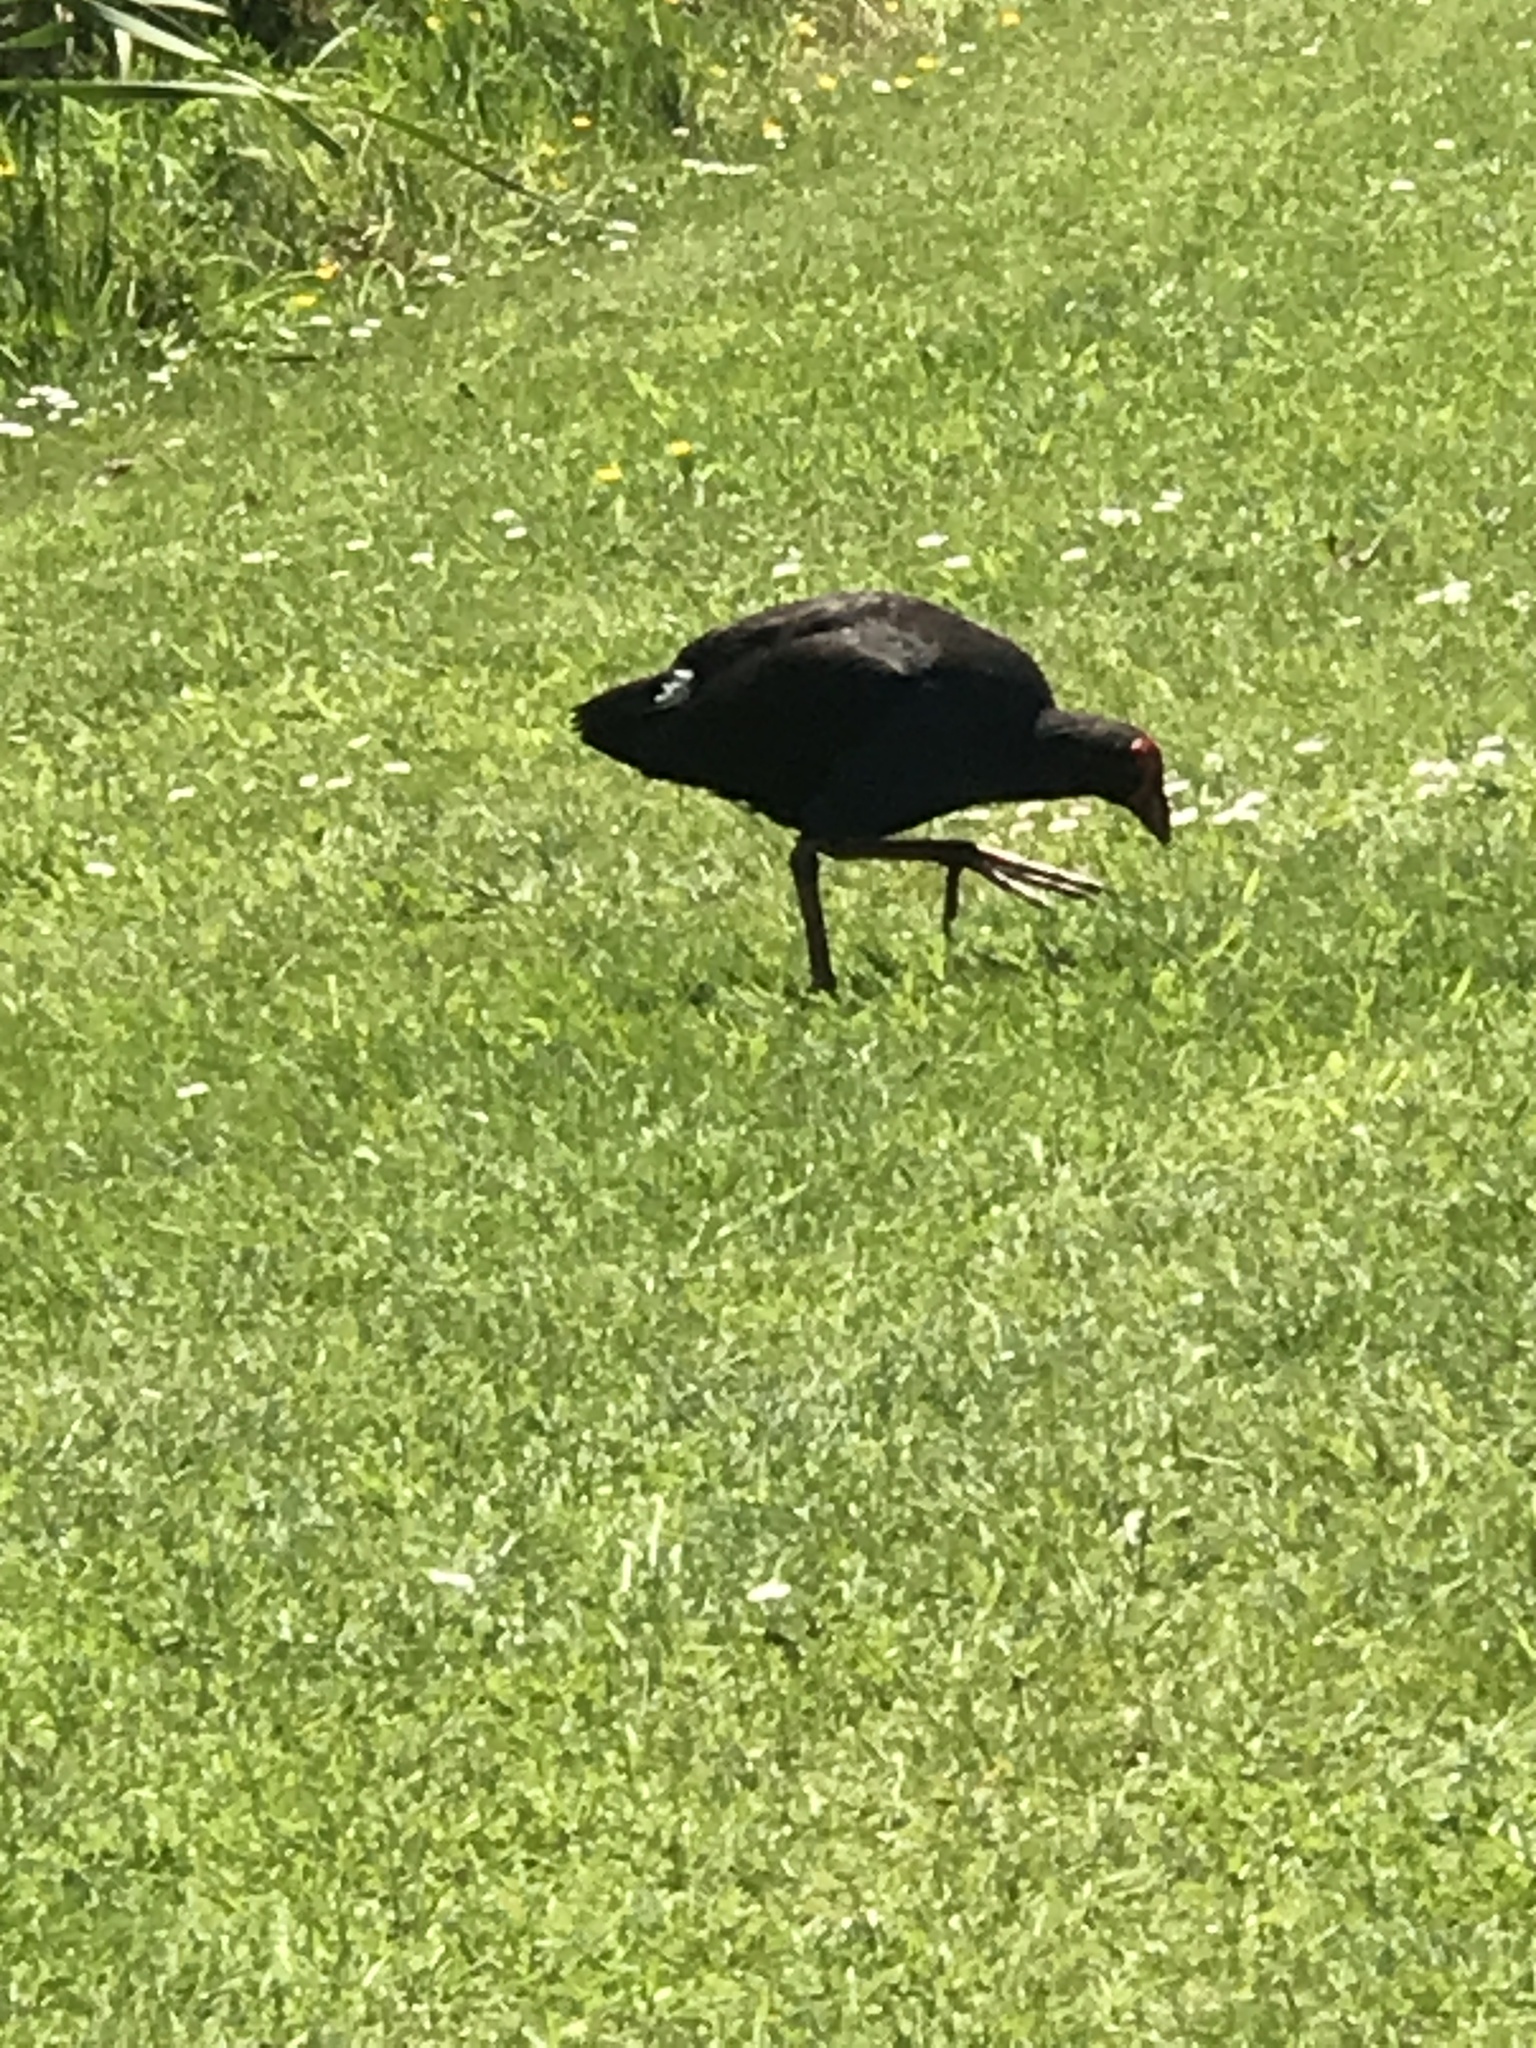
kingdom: Animalia
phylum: Chordata
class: Aves
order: Gruiformes
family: Rallidae
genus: Porphyrio
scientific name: Porphyrio melanotus
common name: Australasian swamphen
